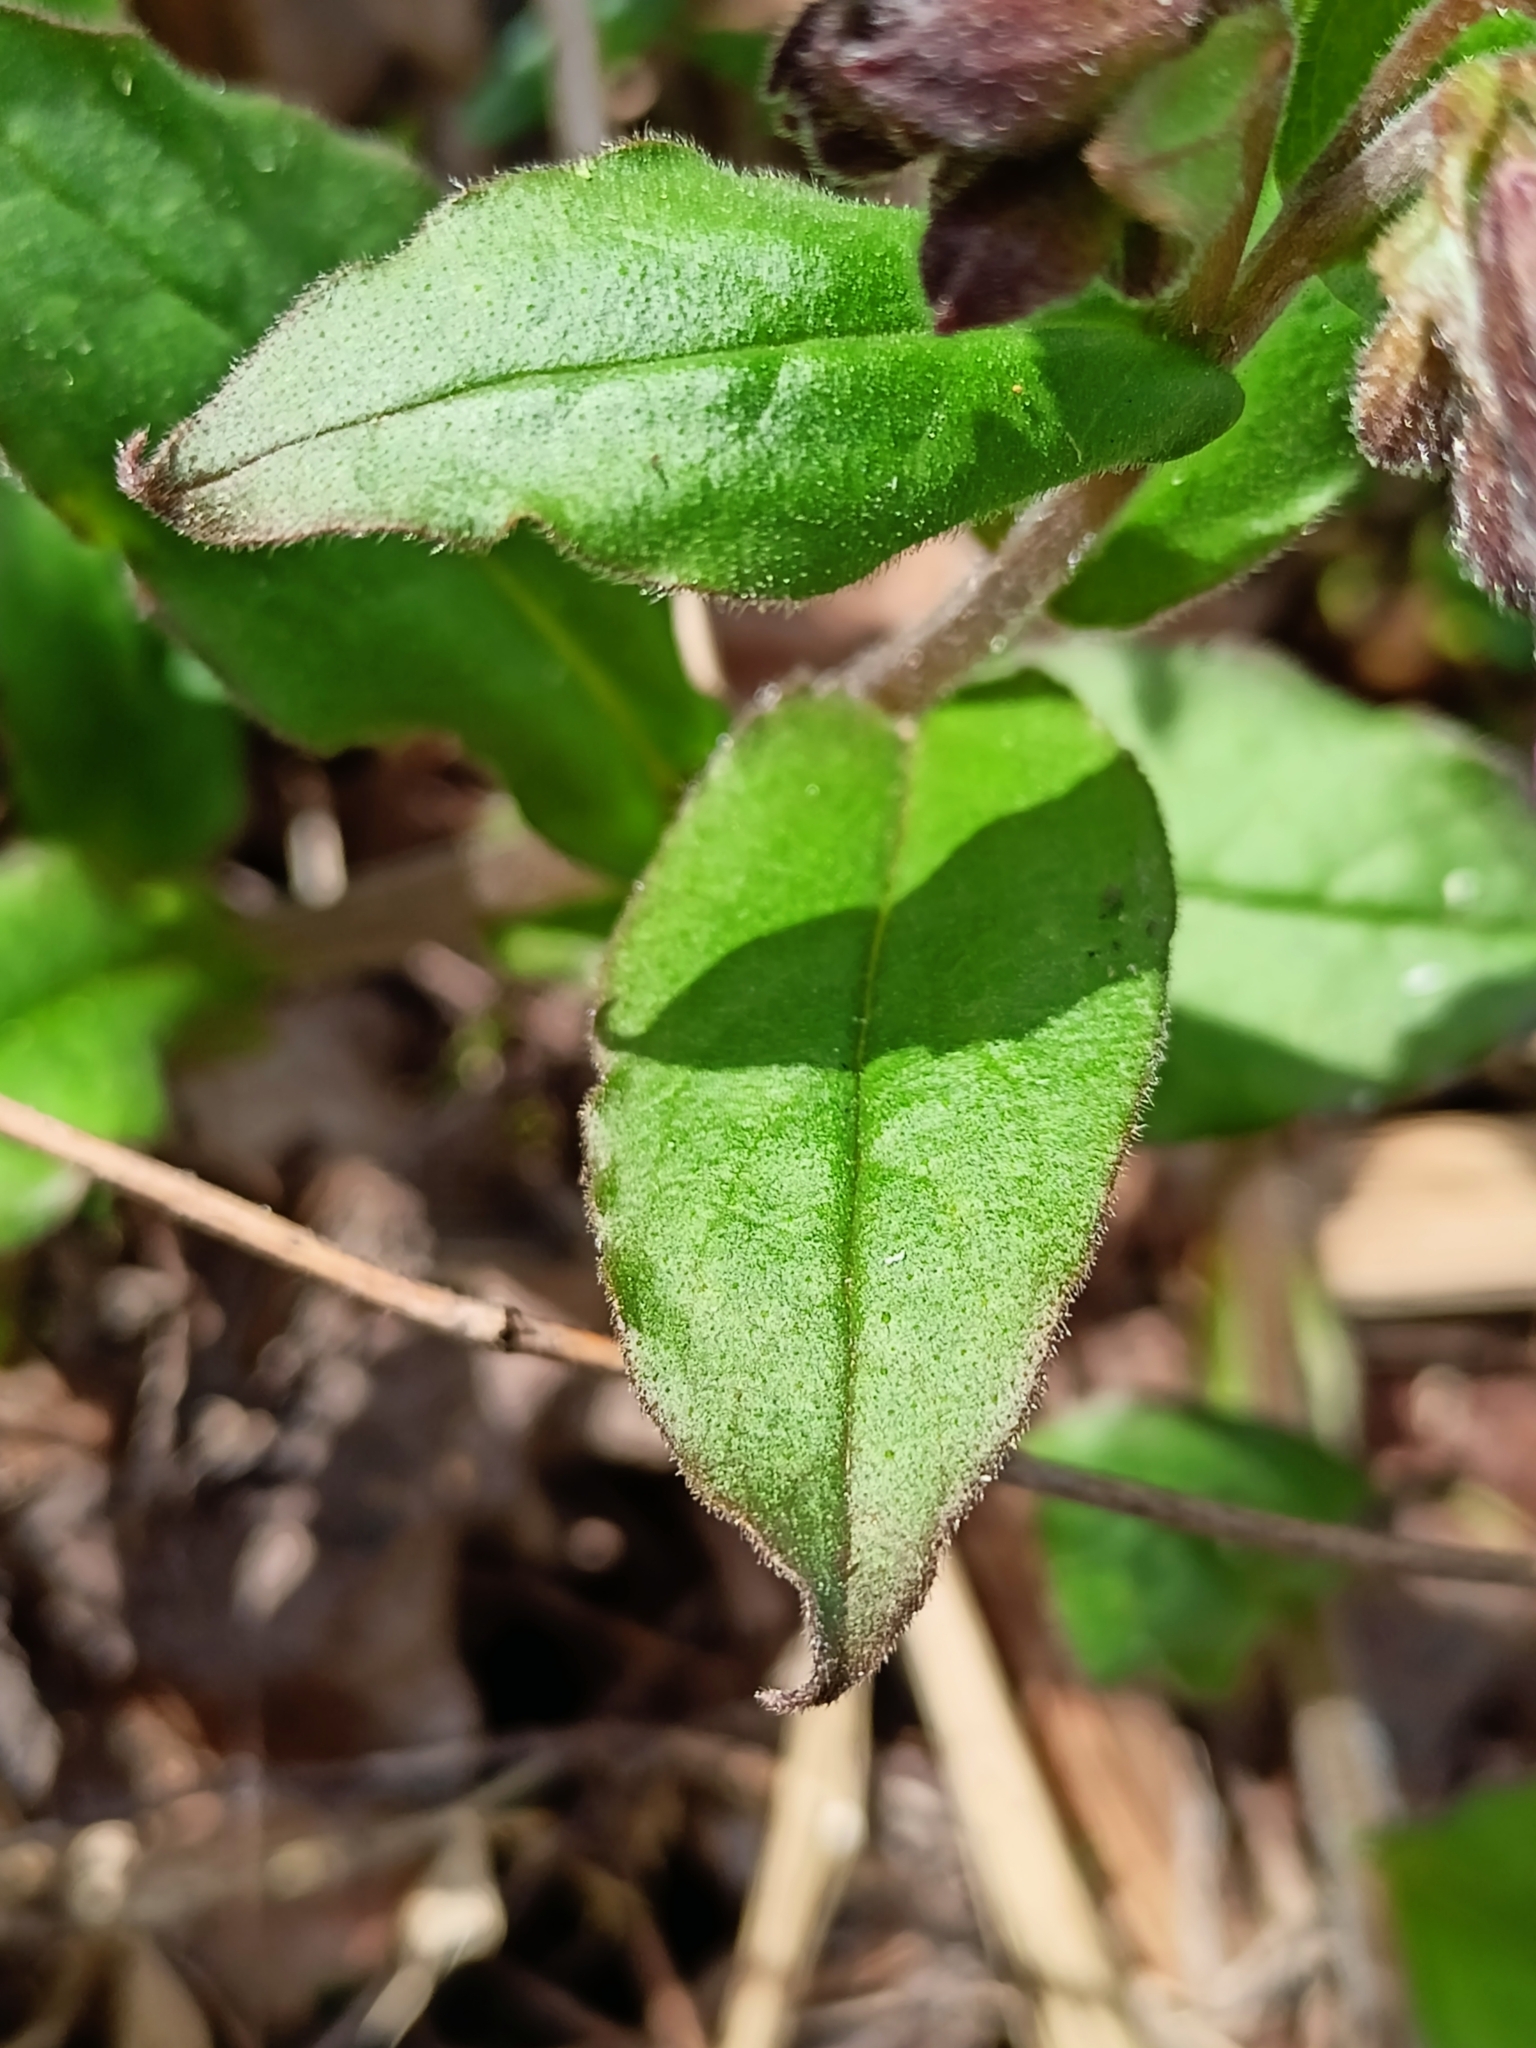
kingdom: Plantae
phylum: Tracheophyta
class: Magnoliopsida
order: Boraginales
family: Boraginaceae
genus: Pulmonaria
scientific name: Pulmonaria obscura
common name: Suffolk lungwort
